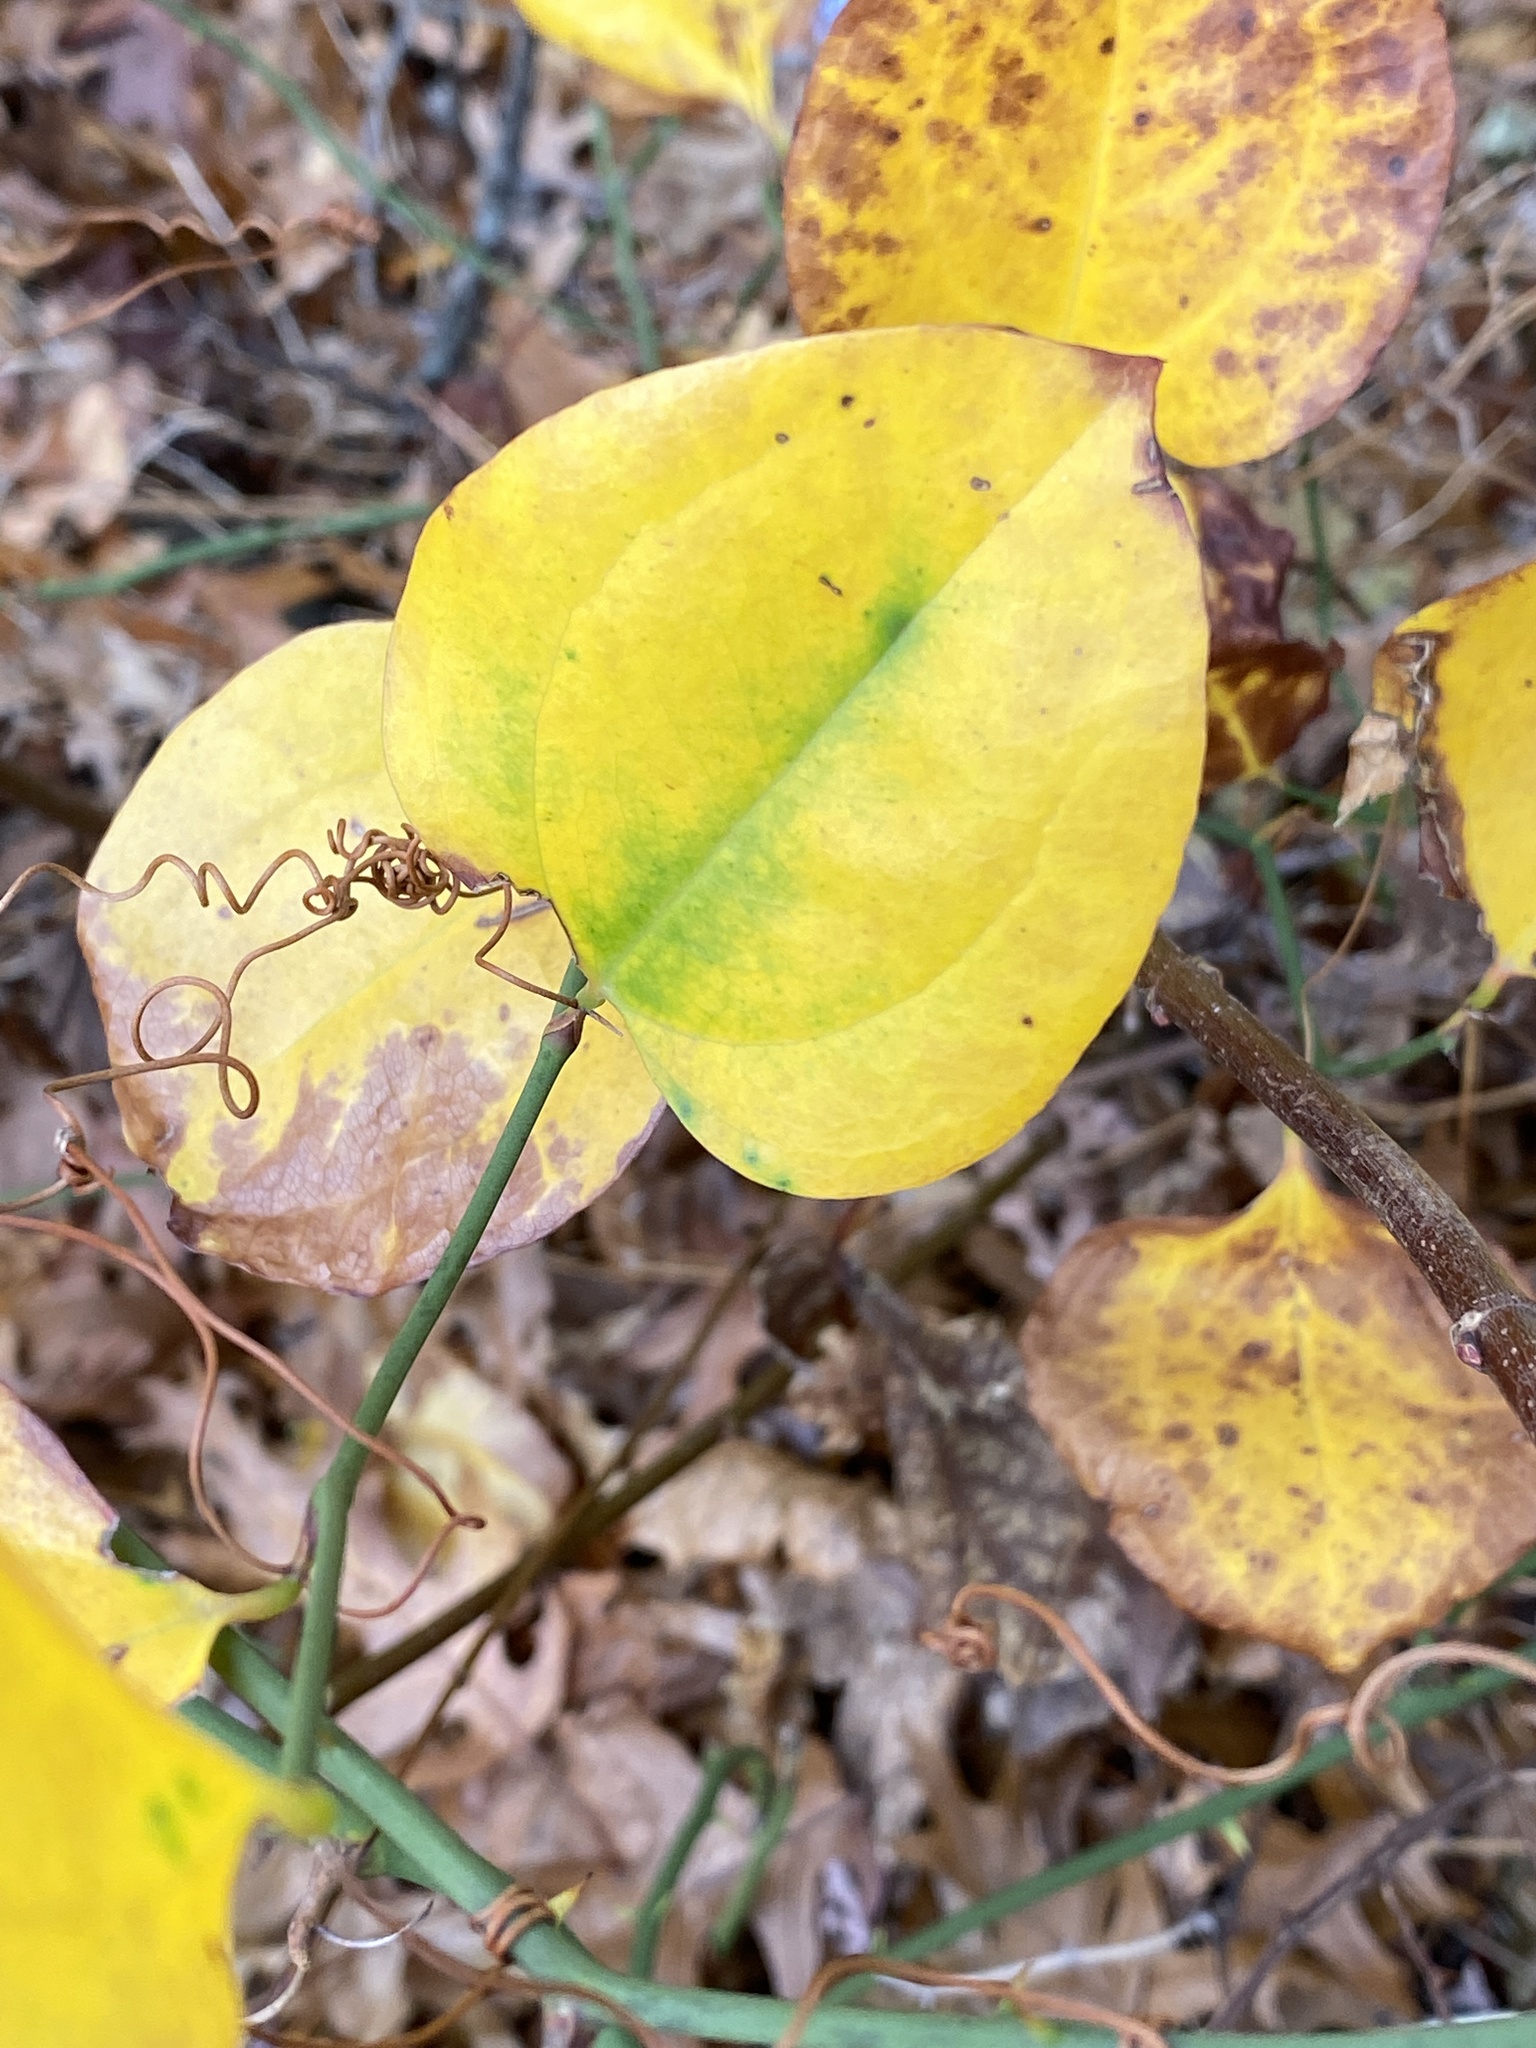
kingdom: Plantae
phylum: Tracheophyta
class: Liliopsida
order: Liliales
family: Smilacaceae
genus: Smilax
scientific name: Smilax rotundifolia
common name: Bullbriar
